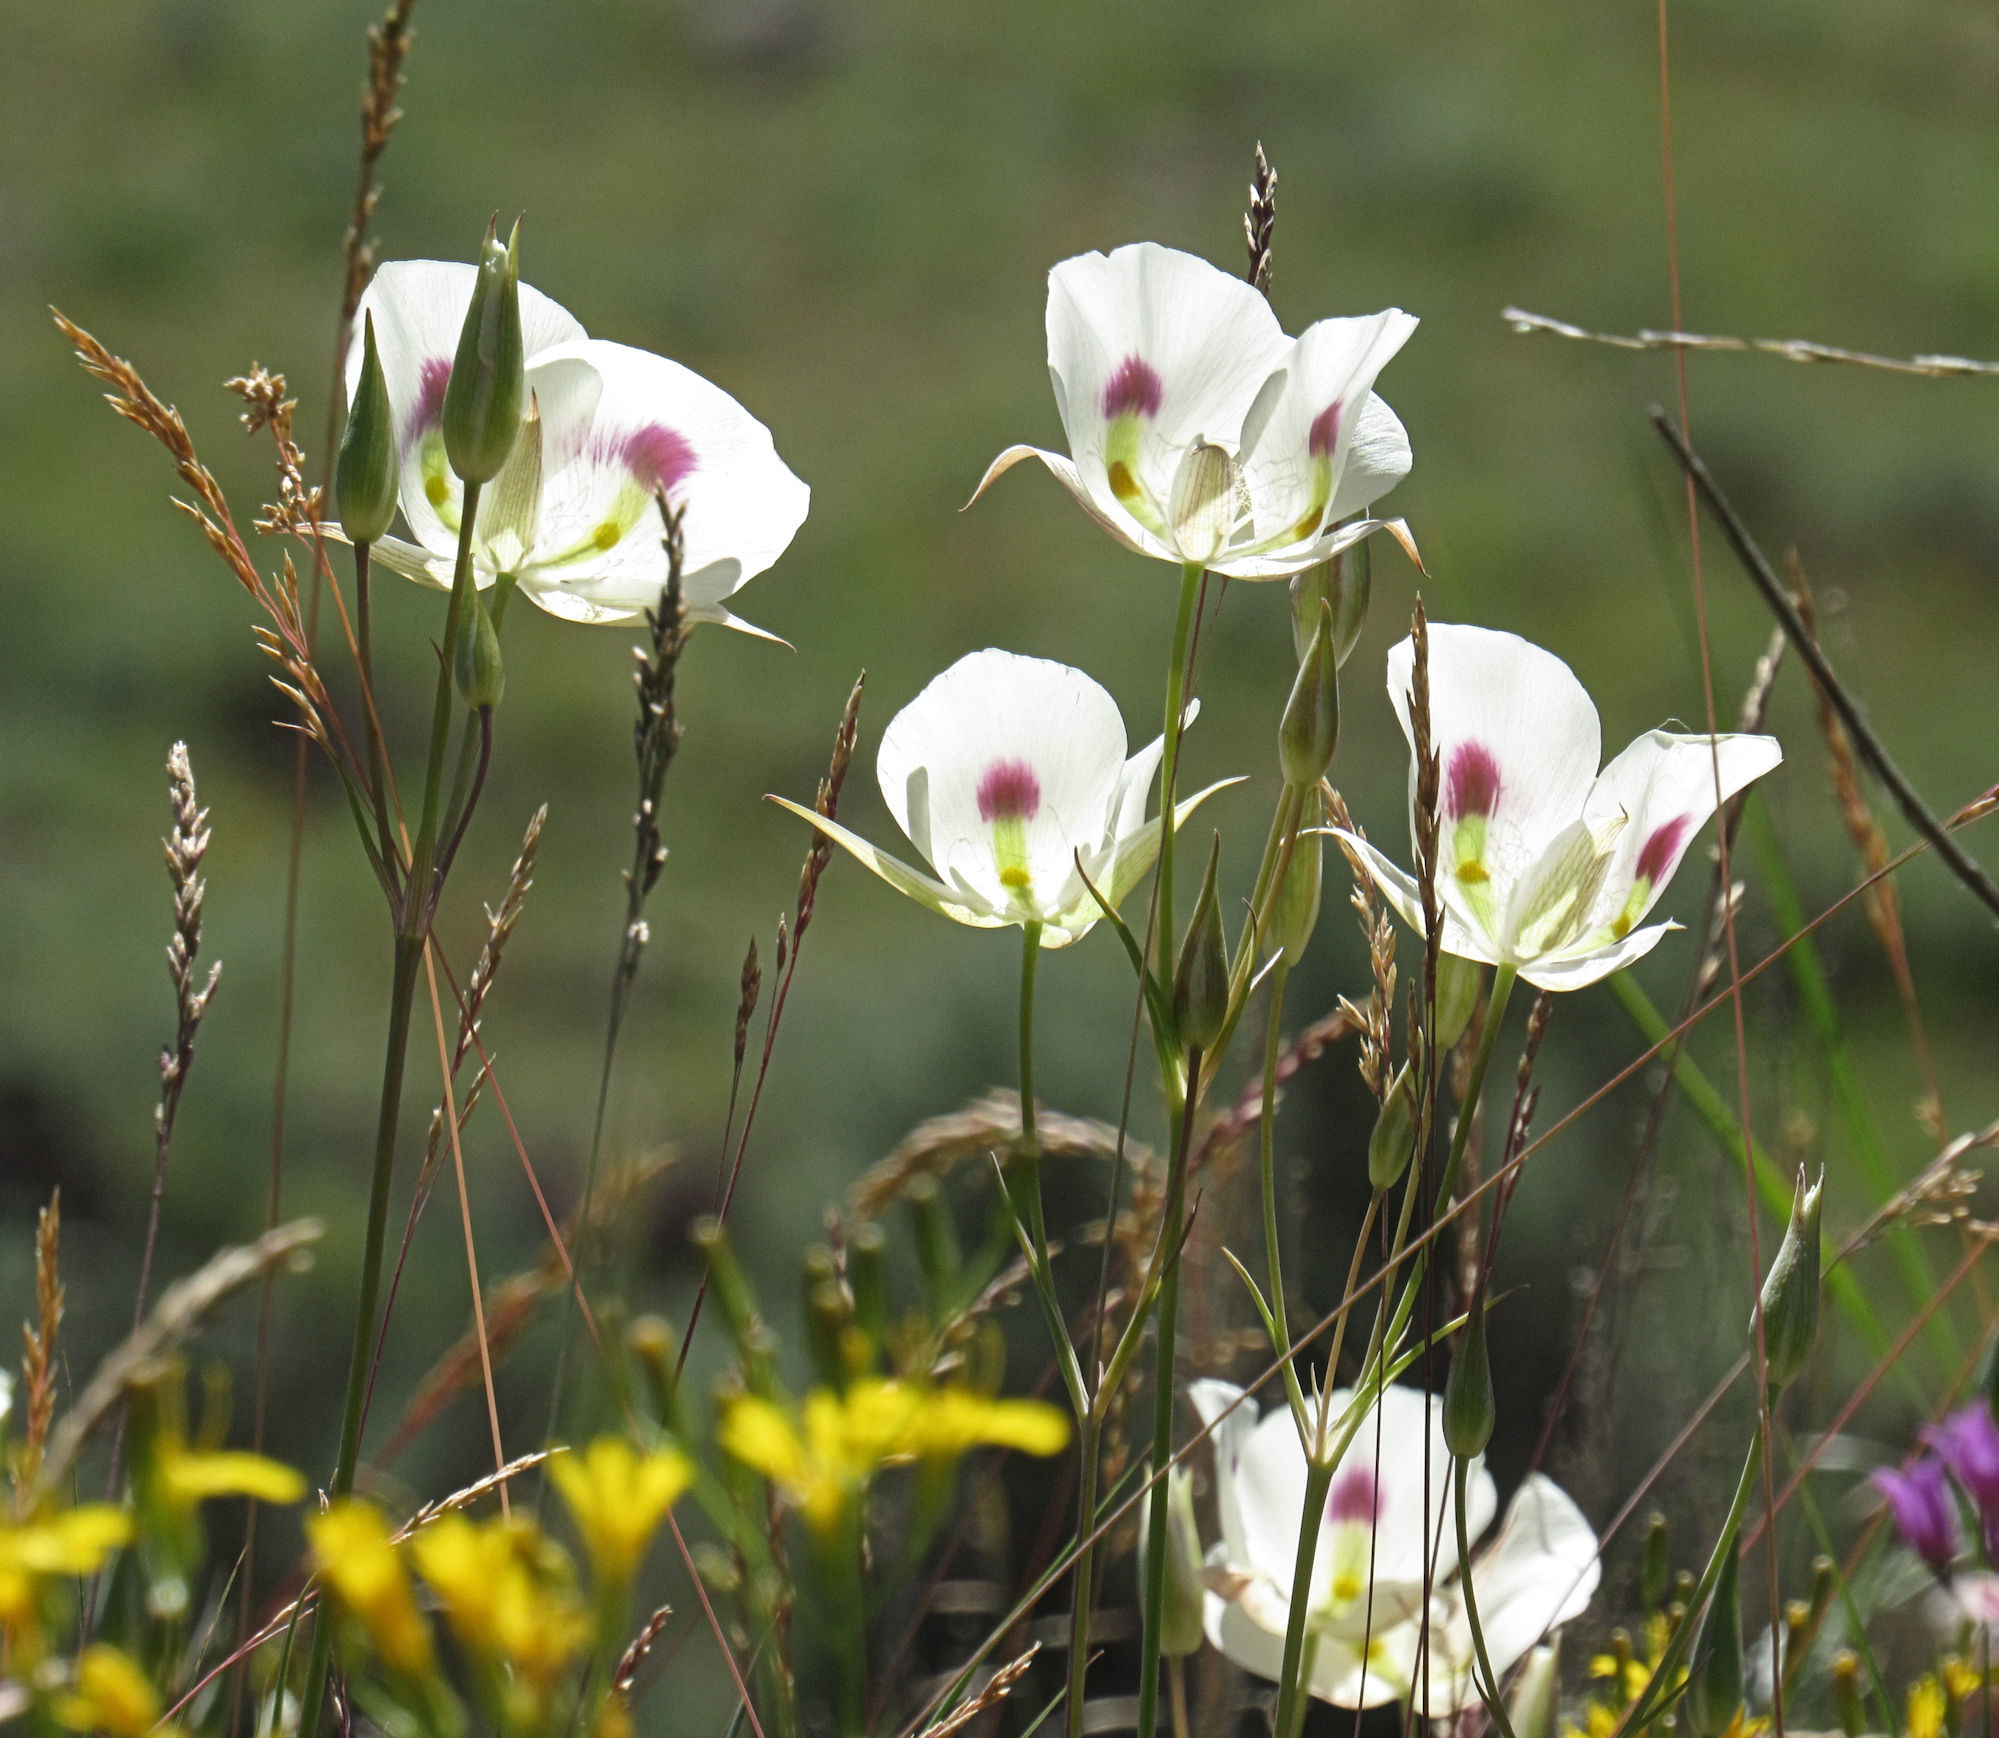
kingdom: Plantae
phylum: Tracheophyta
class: Liliopsida
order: Liliales
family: Liliaceae
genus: Calochortus
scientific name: Calochortus eurycarpus
